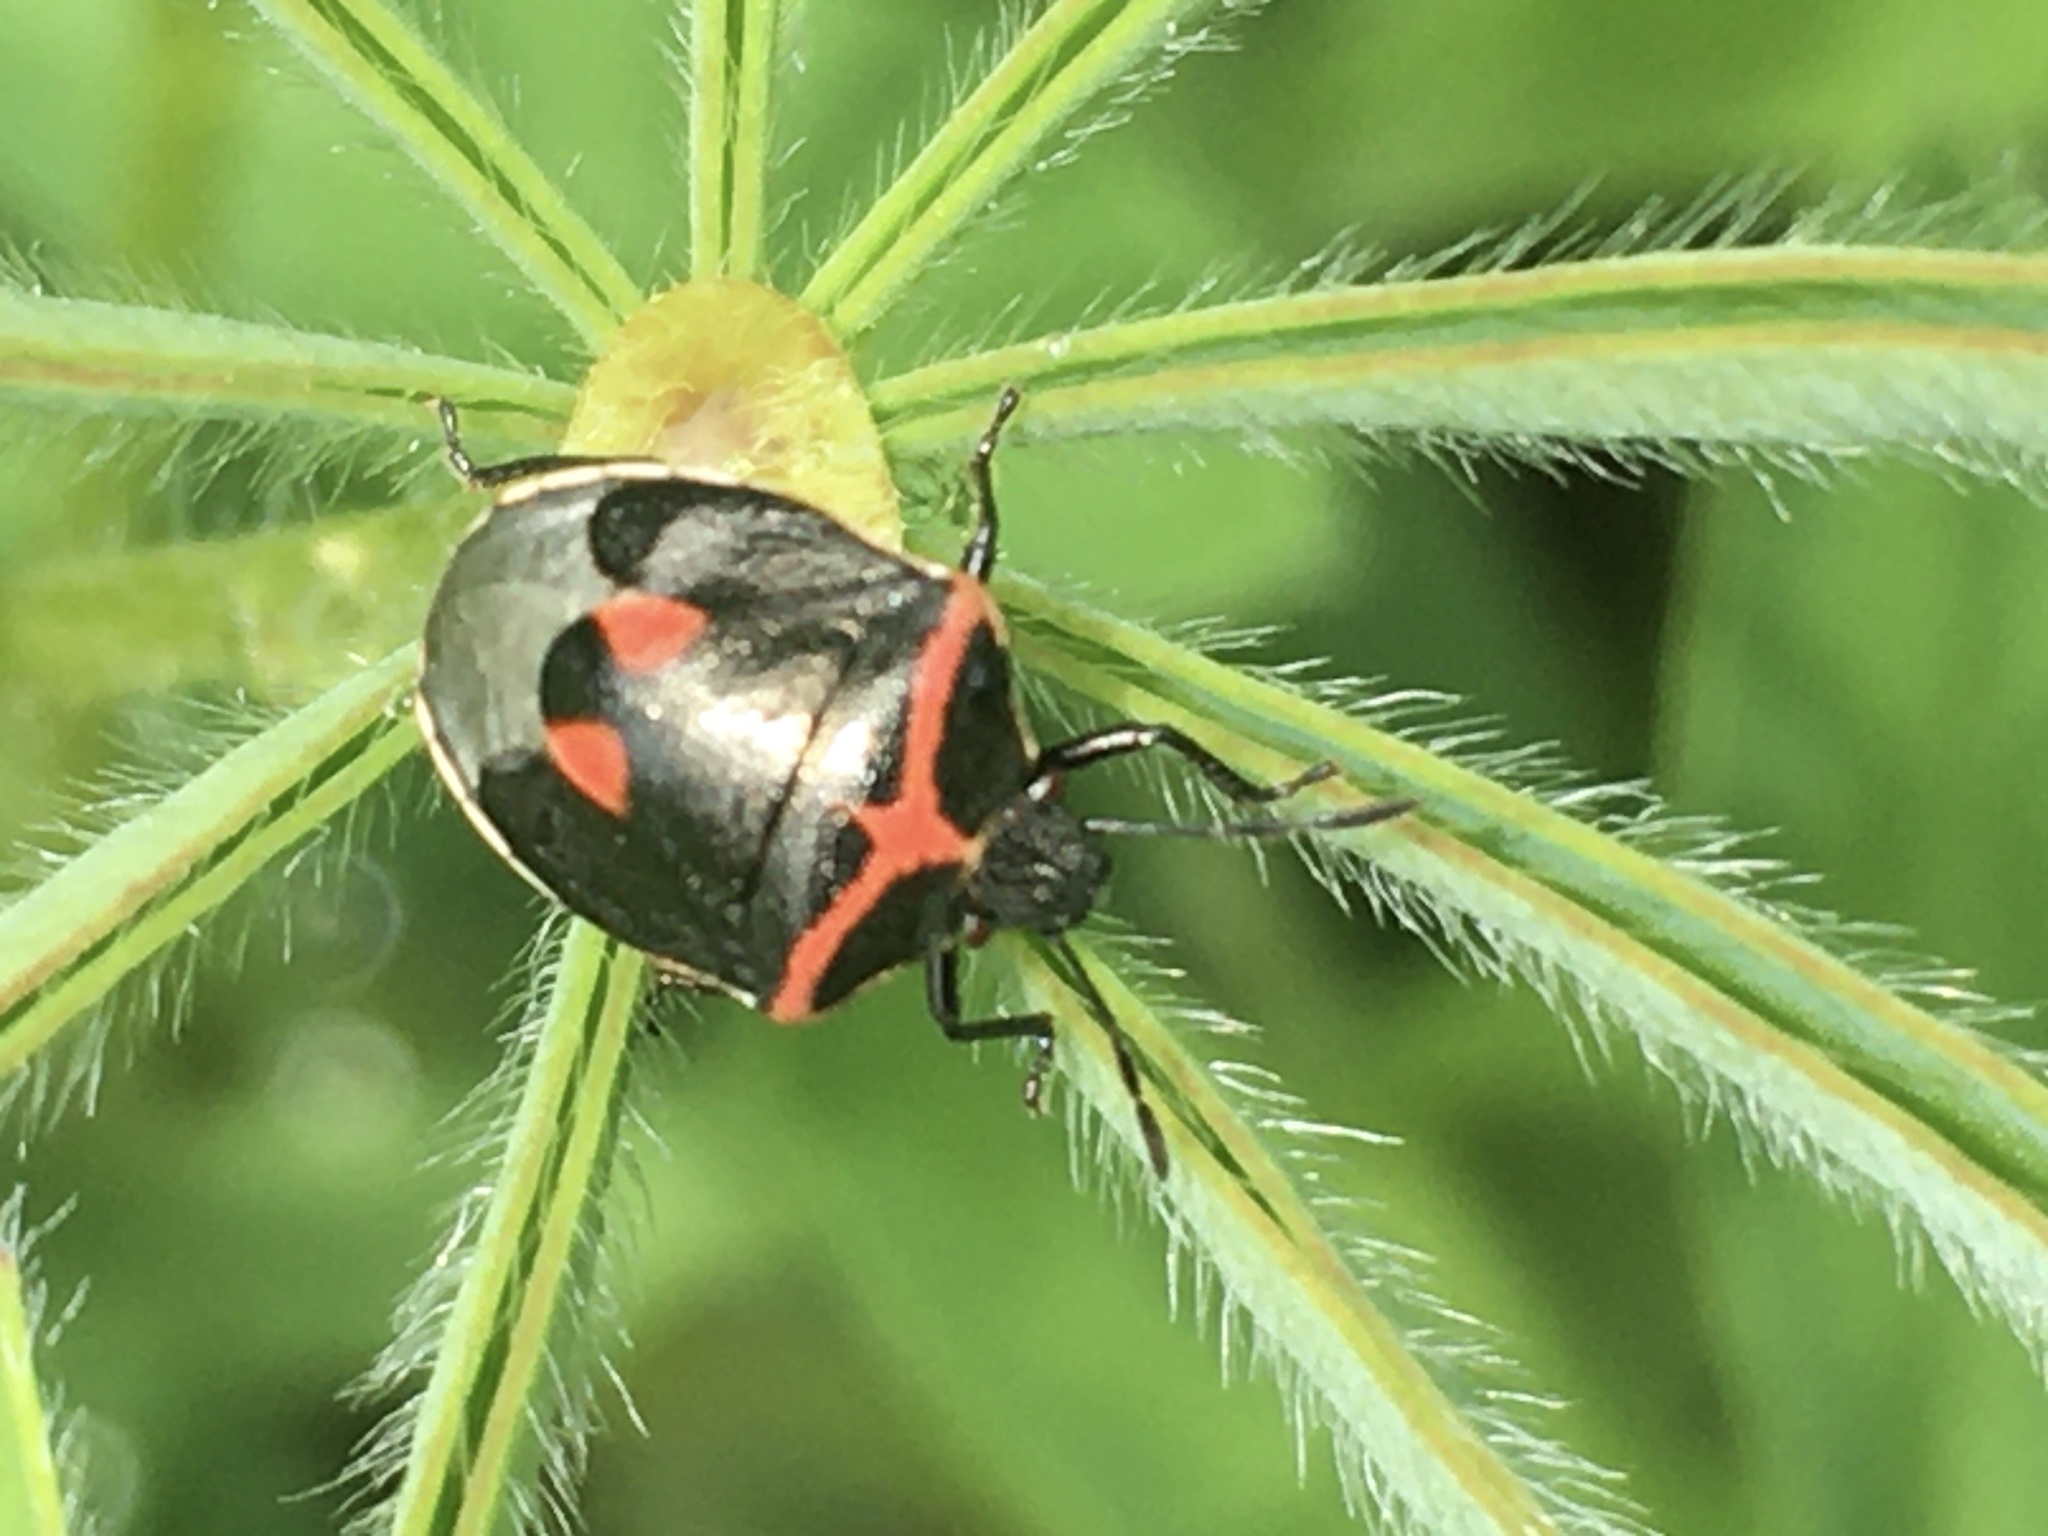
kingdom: Animalia
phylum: Arthropoda
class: Insecta
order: Hemiptera
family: Pentatomidae
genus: Cosmopepla
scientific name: Cosmopepla lintneriana
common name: Twice-stabbed stink bug
